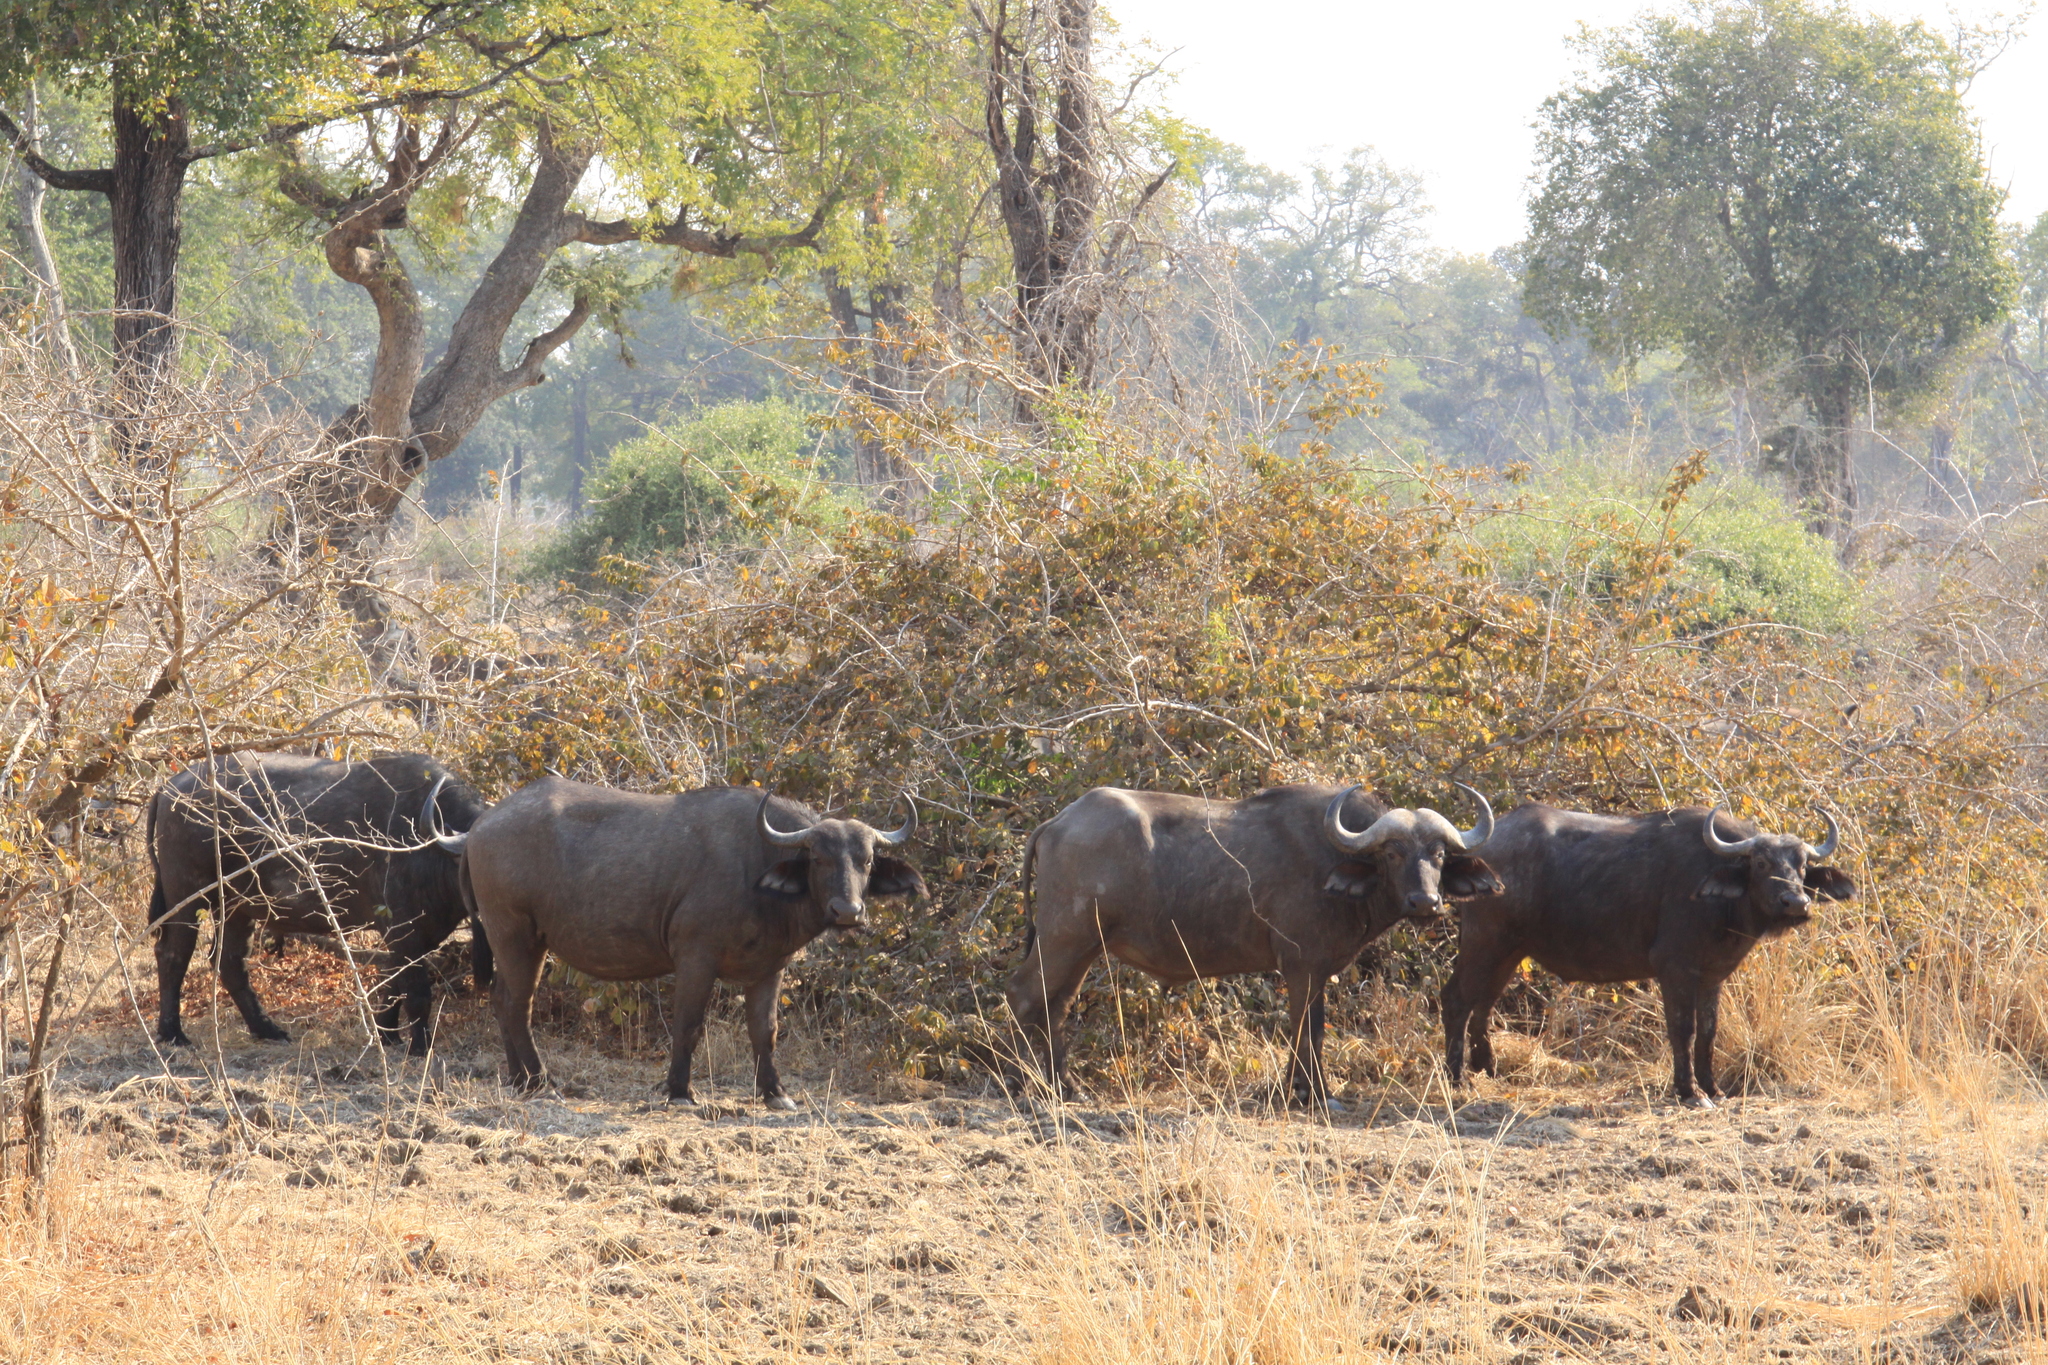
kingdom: Animalia
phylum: Chordata
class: Mammalia
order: Artiodactyla
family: Bovidae
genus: Syncerus
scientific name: Syncerus caffer
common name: African buffalo
